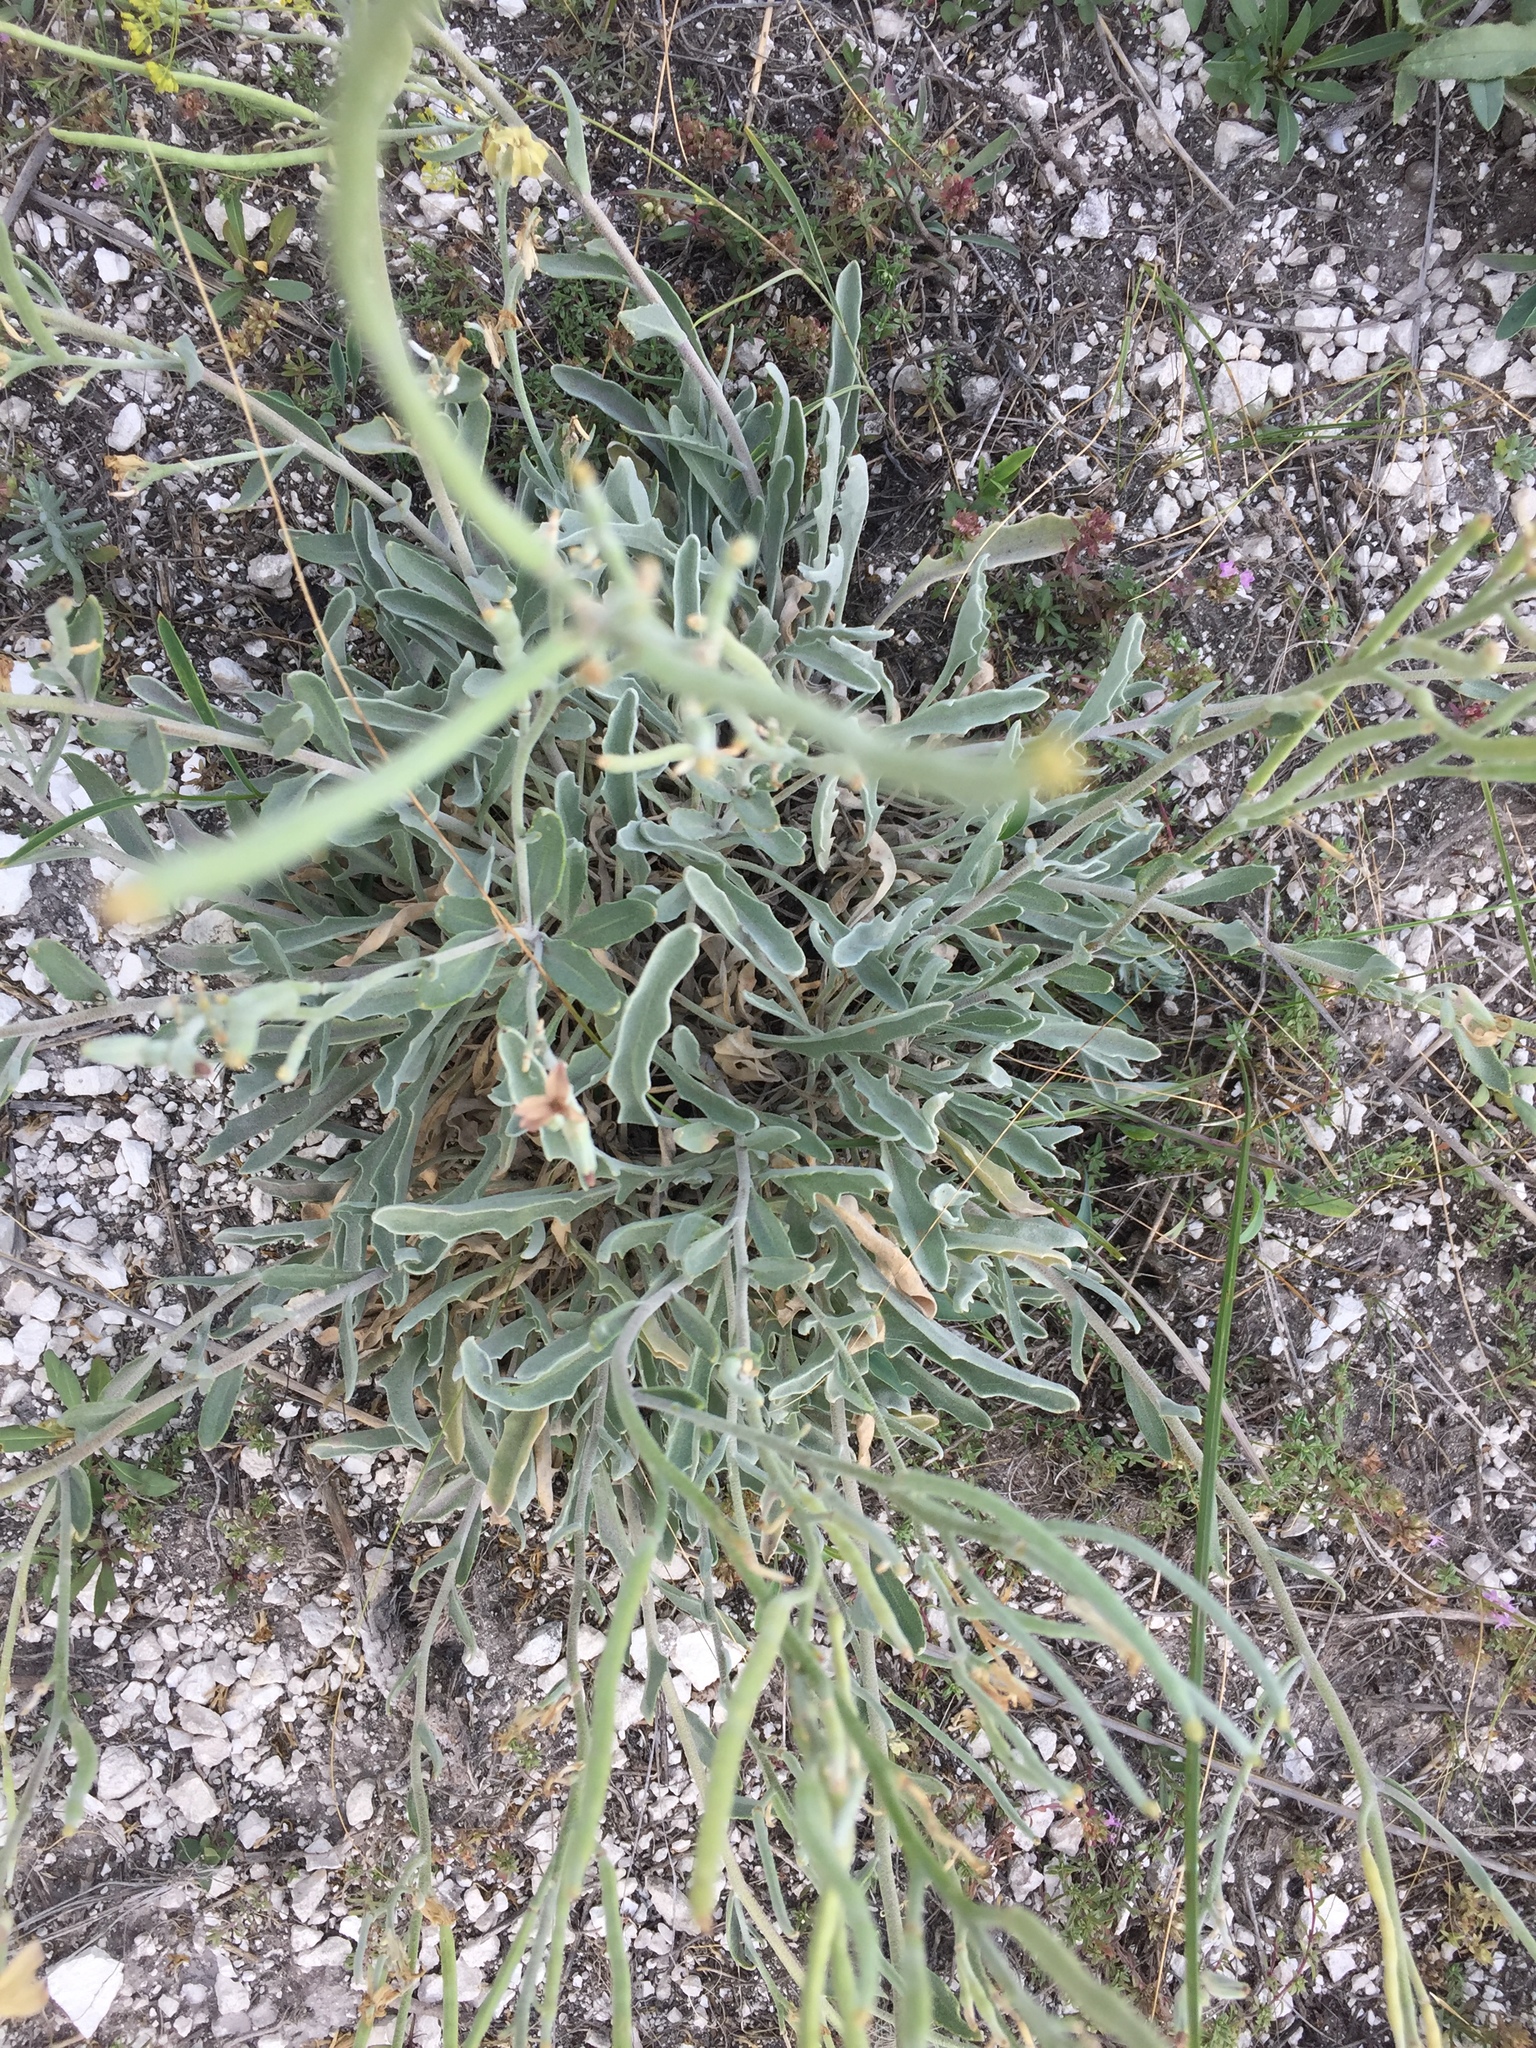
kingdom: Plantae
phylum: Tracheophyta
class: Magnoliopsida
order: Brassicales
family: Brassicaceae
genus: Matthiola
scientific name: Matthiola fragrans
